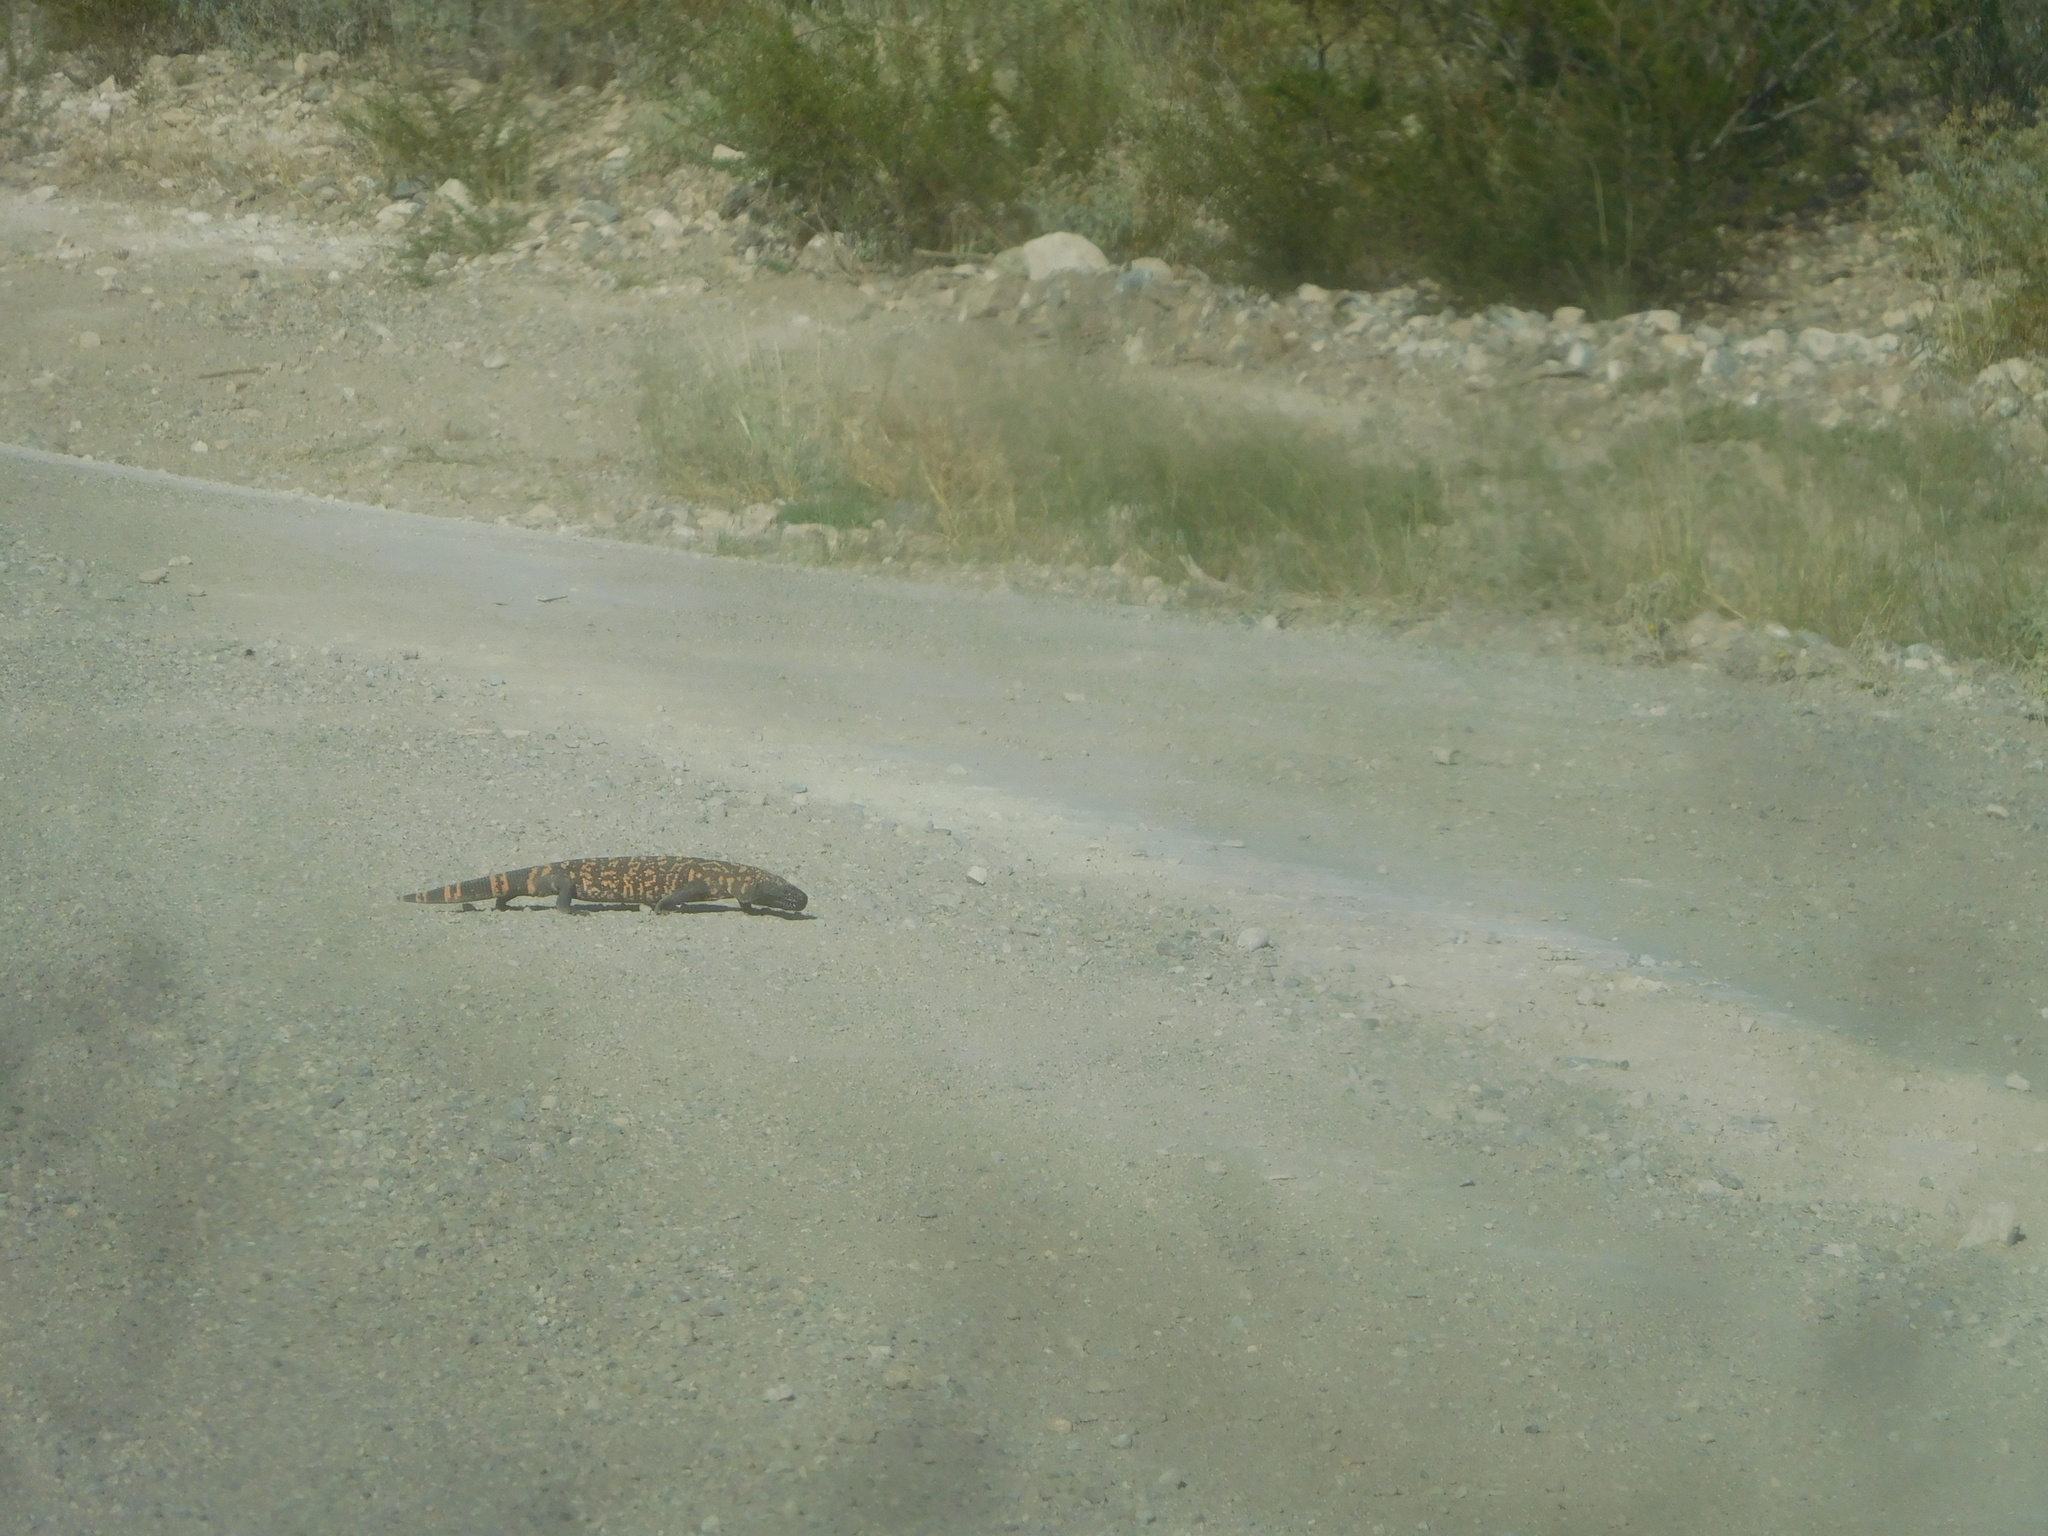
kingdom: Animalia
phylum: Chordata
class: Squamata
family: Helodermatidae
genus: Heloderma
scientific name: Heloderma suspectum
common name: Gila monster
